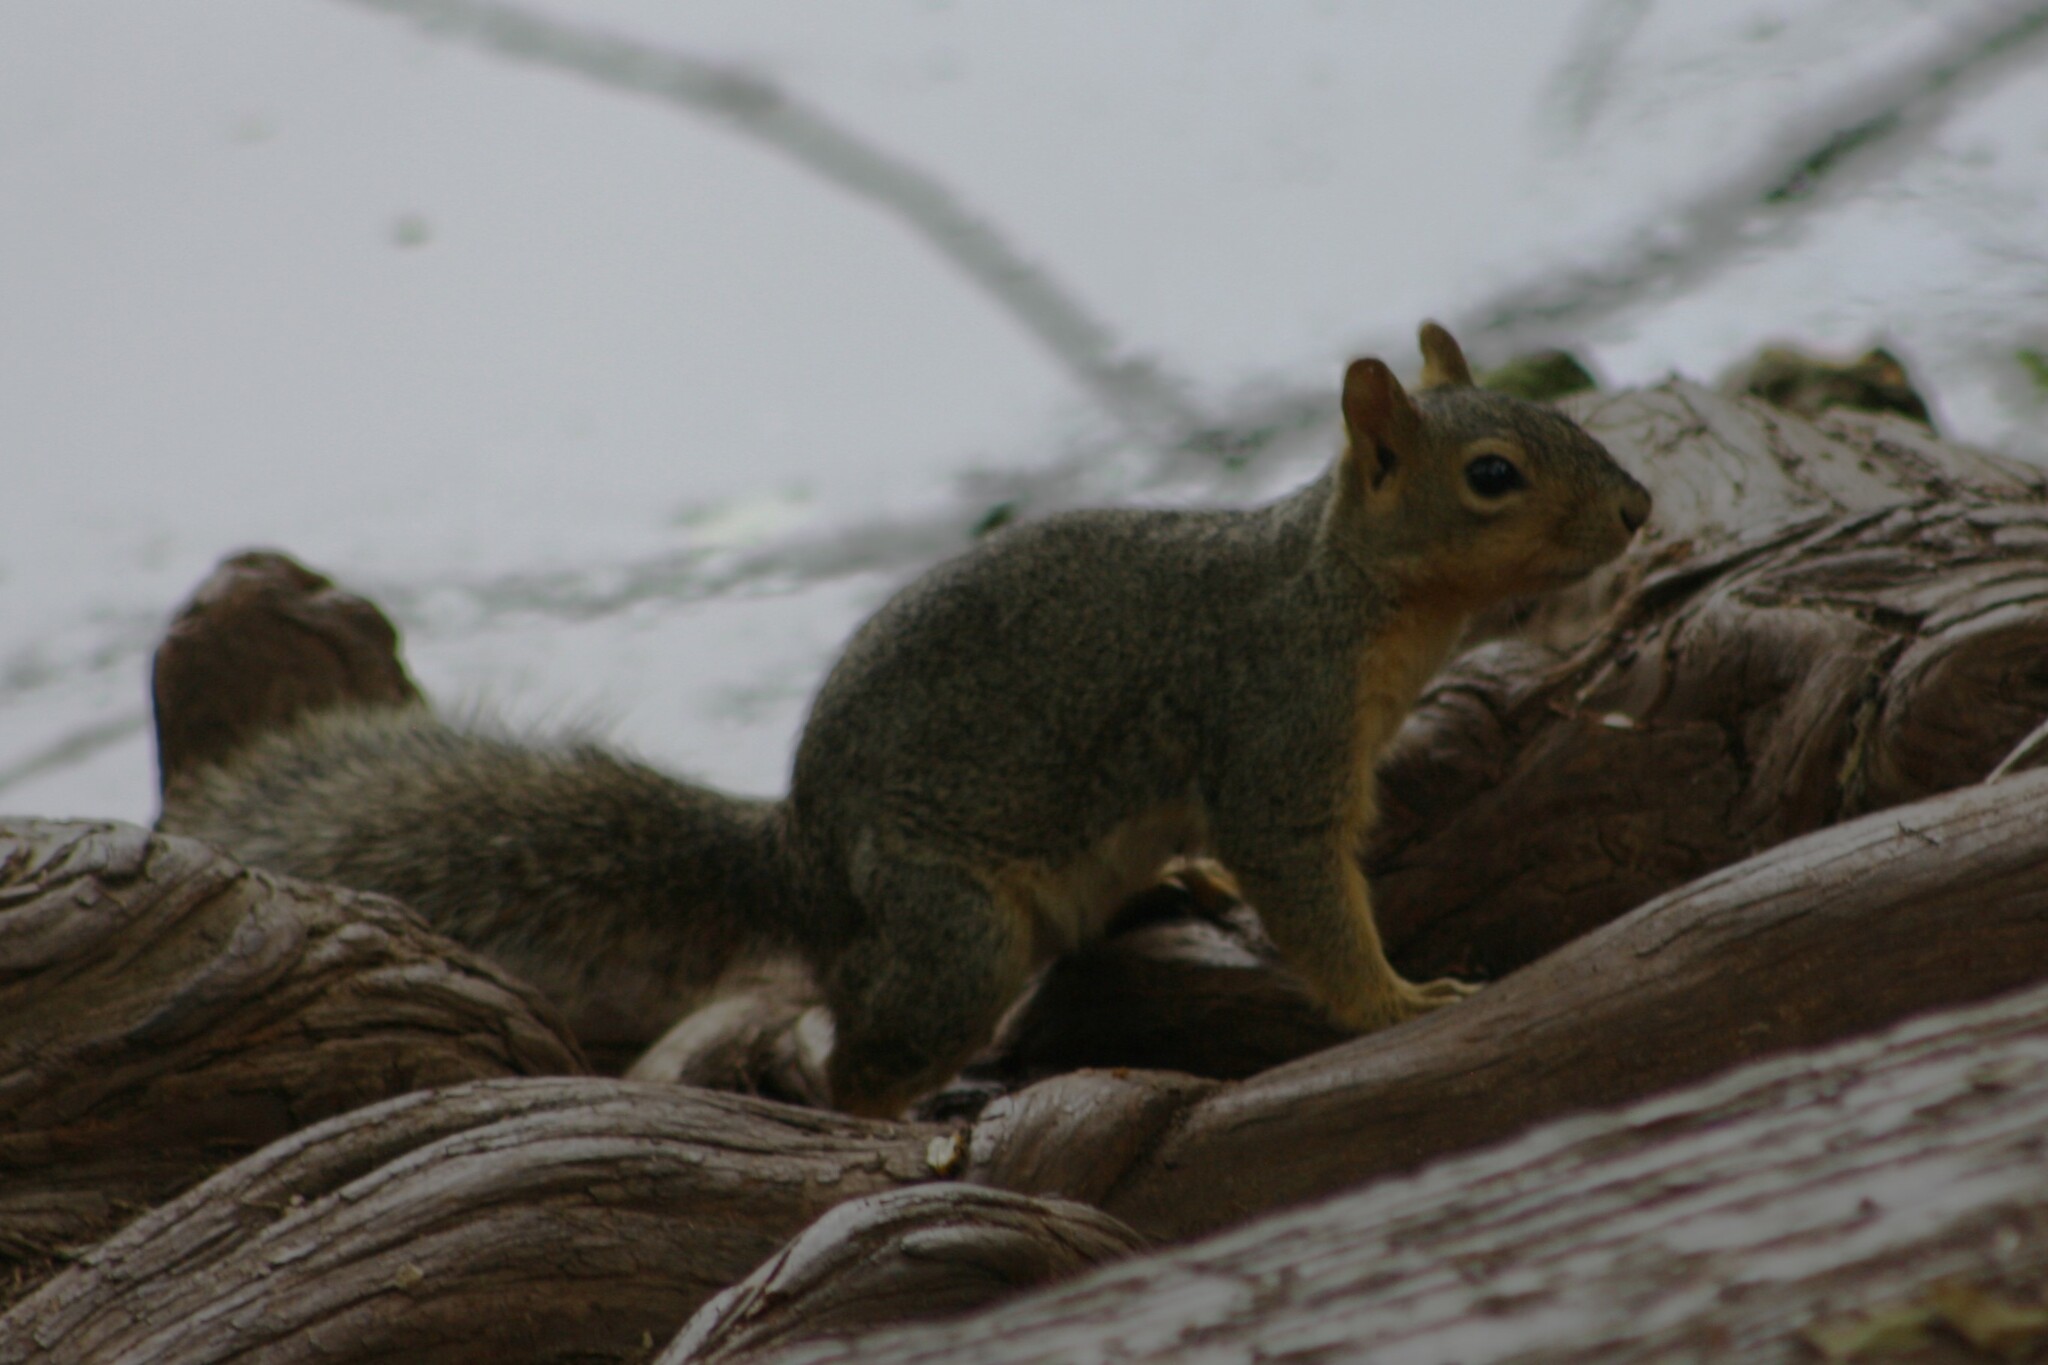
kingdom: Animalia
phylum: Chordata
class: Mammalia
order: Rodentia
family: Sciuridae
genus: Sciurus
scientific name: Sciurus niger
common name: Fox squirrel
